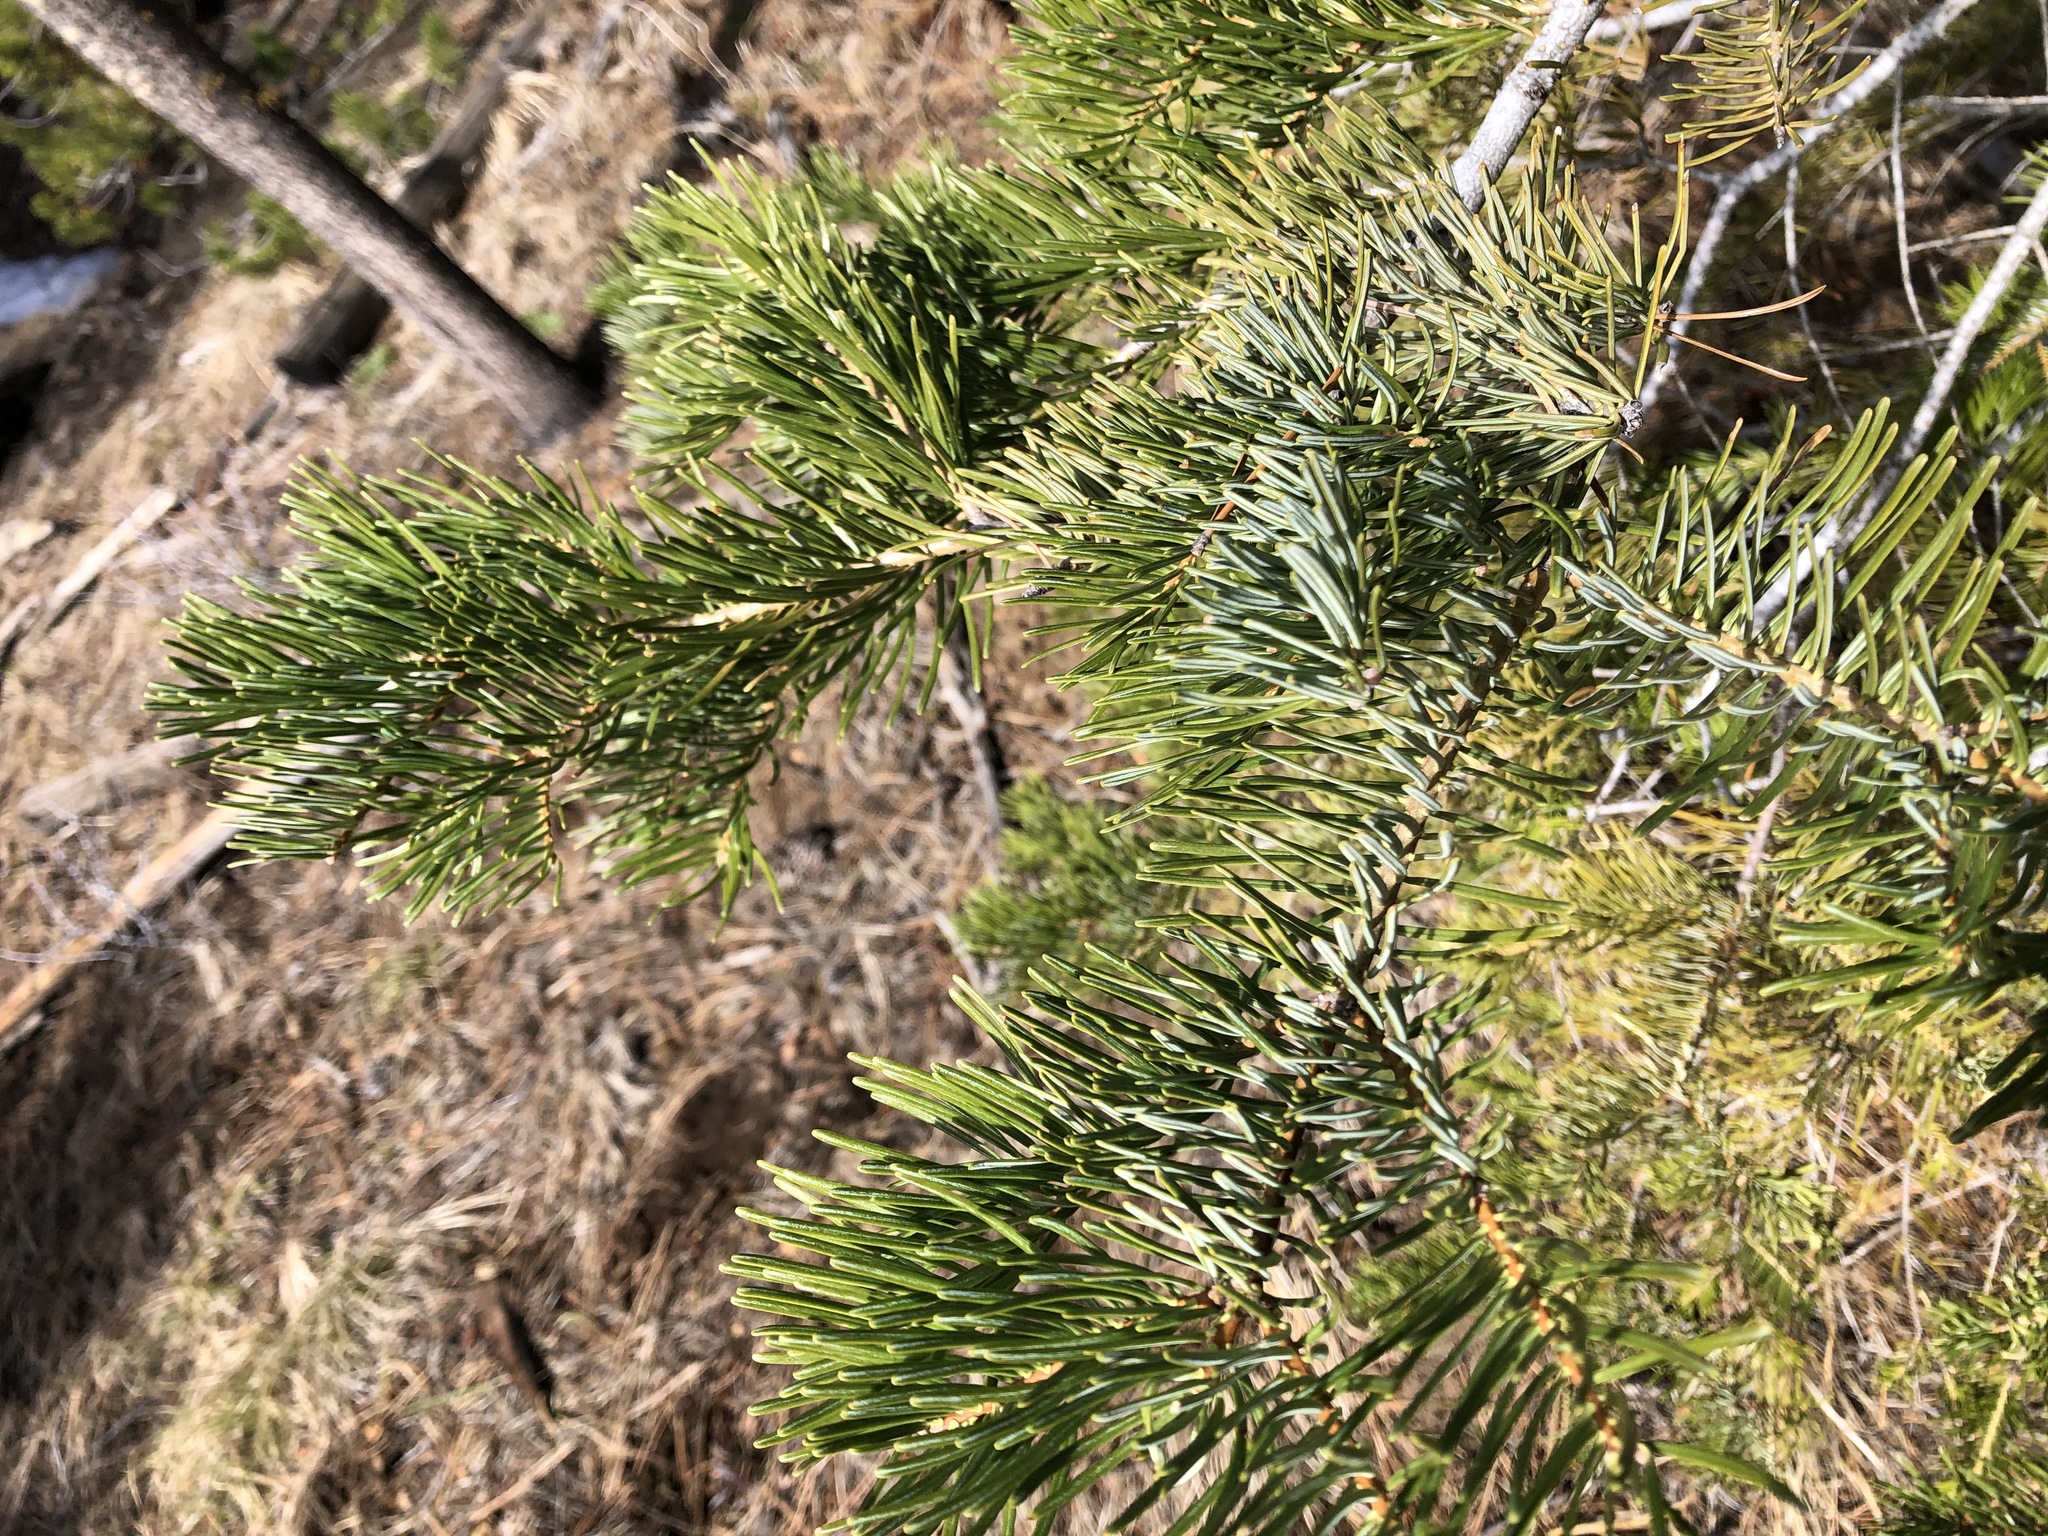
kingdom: Plantae
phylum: Tracheophyta
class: Pinopsida
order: Pinales
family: Pinaceae
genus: Abies
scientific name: Abies lasiocarpa
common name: Subalpine fir
